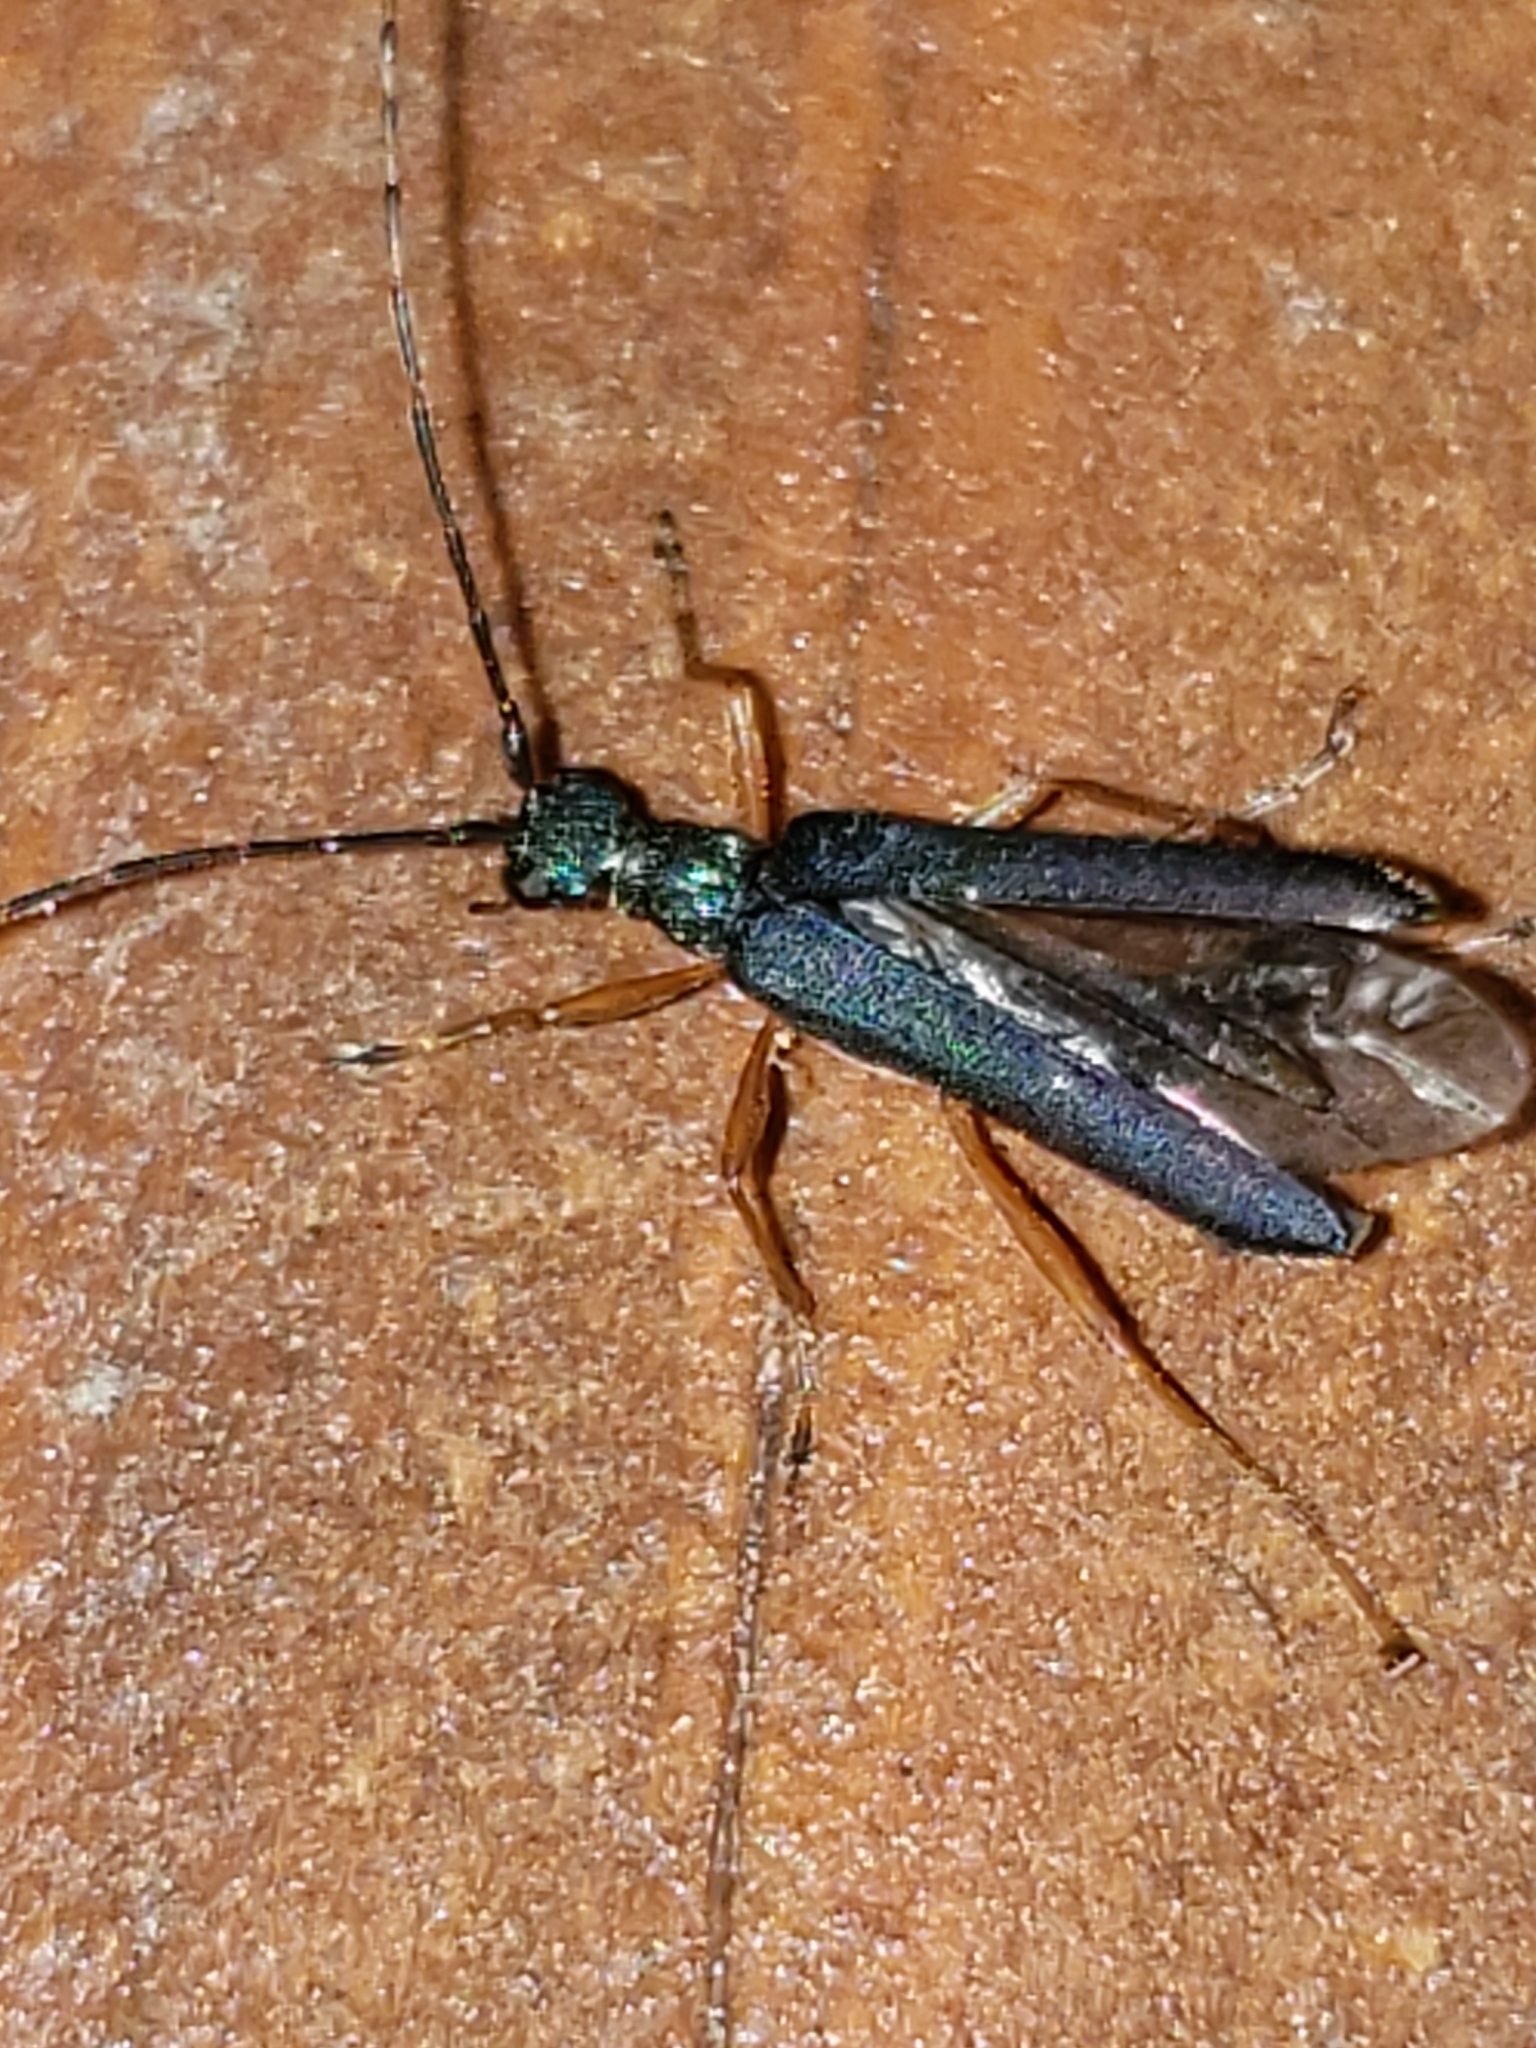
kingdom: Animalia
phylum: Arthropoda
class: Insecta
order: Coleoptera
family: Cerambycidae
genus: Encyclops
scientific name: Encyclops caerulea
